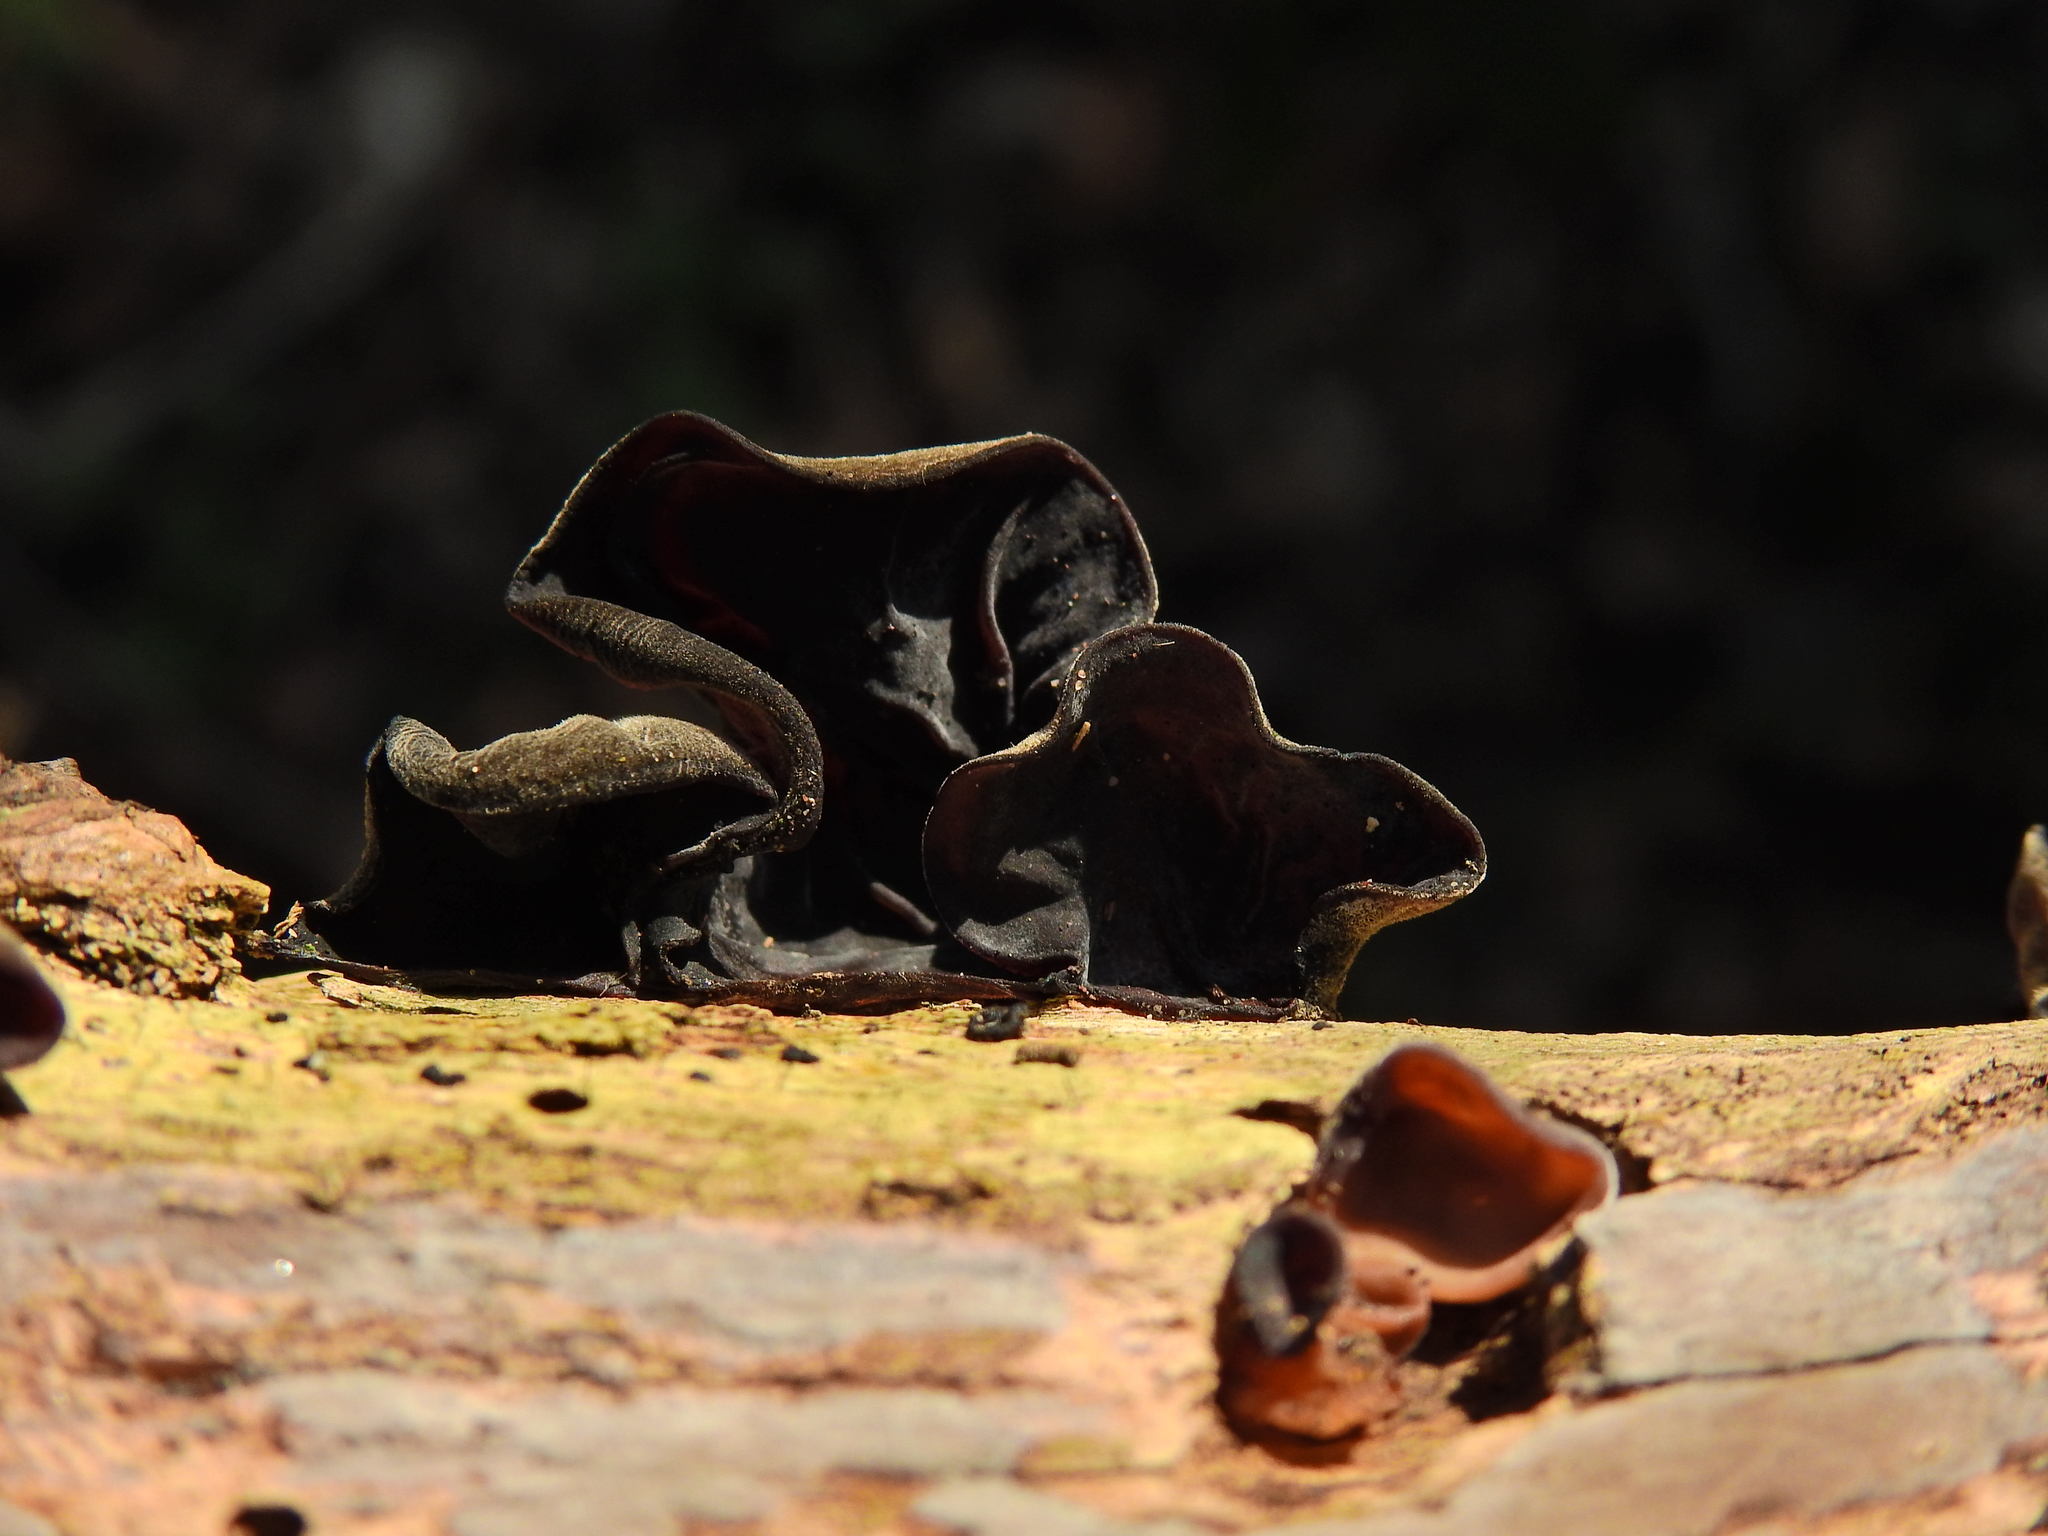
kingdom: Fungi
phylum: Basidiomycota
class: Agaricomycetes
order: Auriculariales
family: Auriculariaceae
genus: Auricularia
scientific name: Auricularia auricula-judae
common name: Jelly ear
